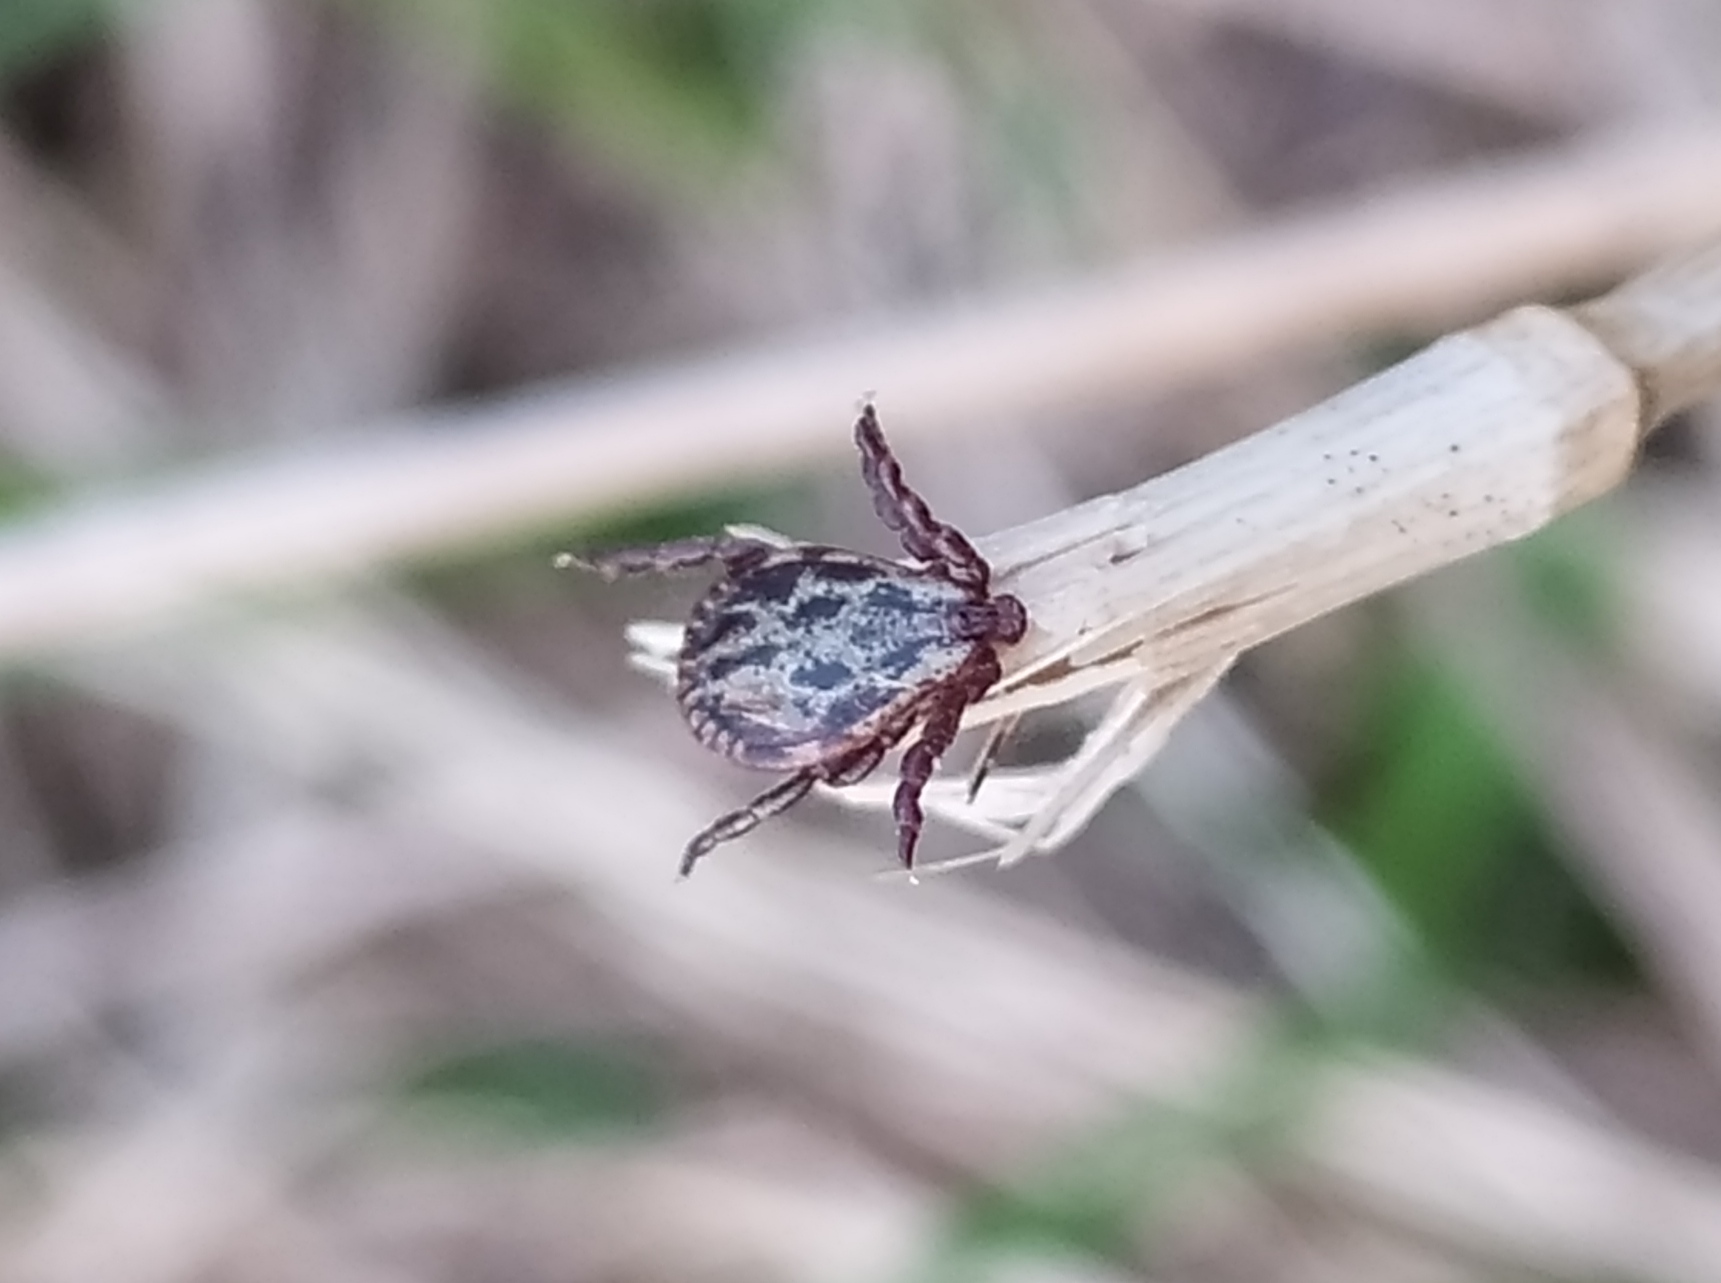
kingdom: Animalia
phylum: Arthropoda
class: Arachnida
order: Ixodida
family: Ixodidae
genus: Dermacentor
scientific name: Dermacentor reticulatus
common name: Ornate cow tick
